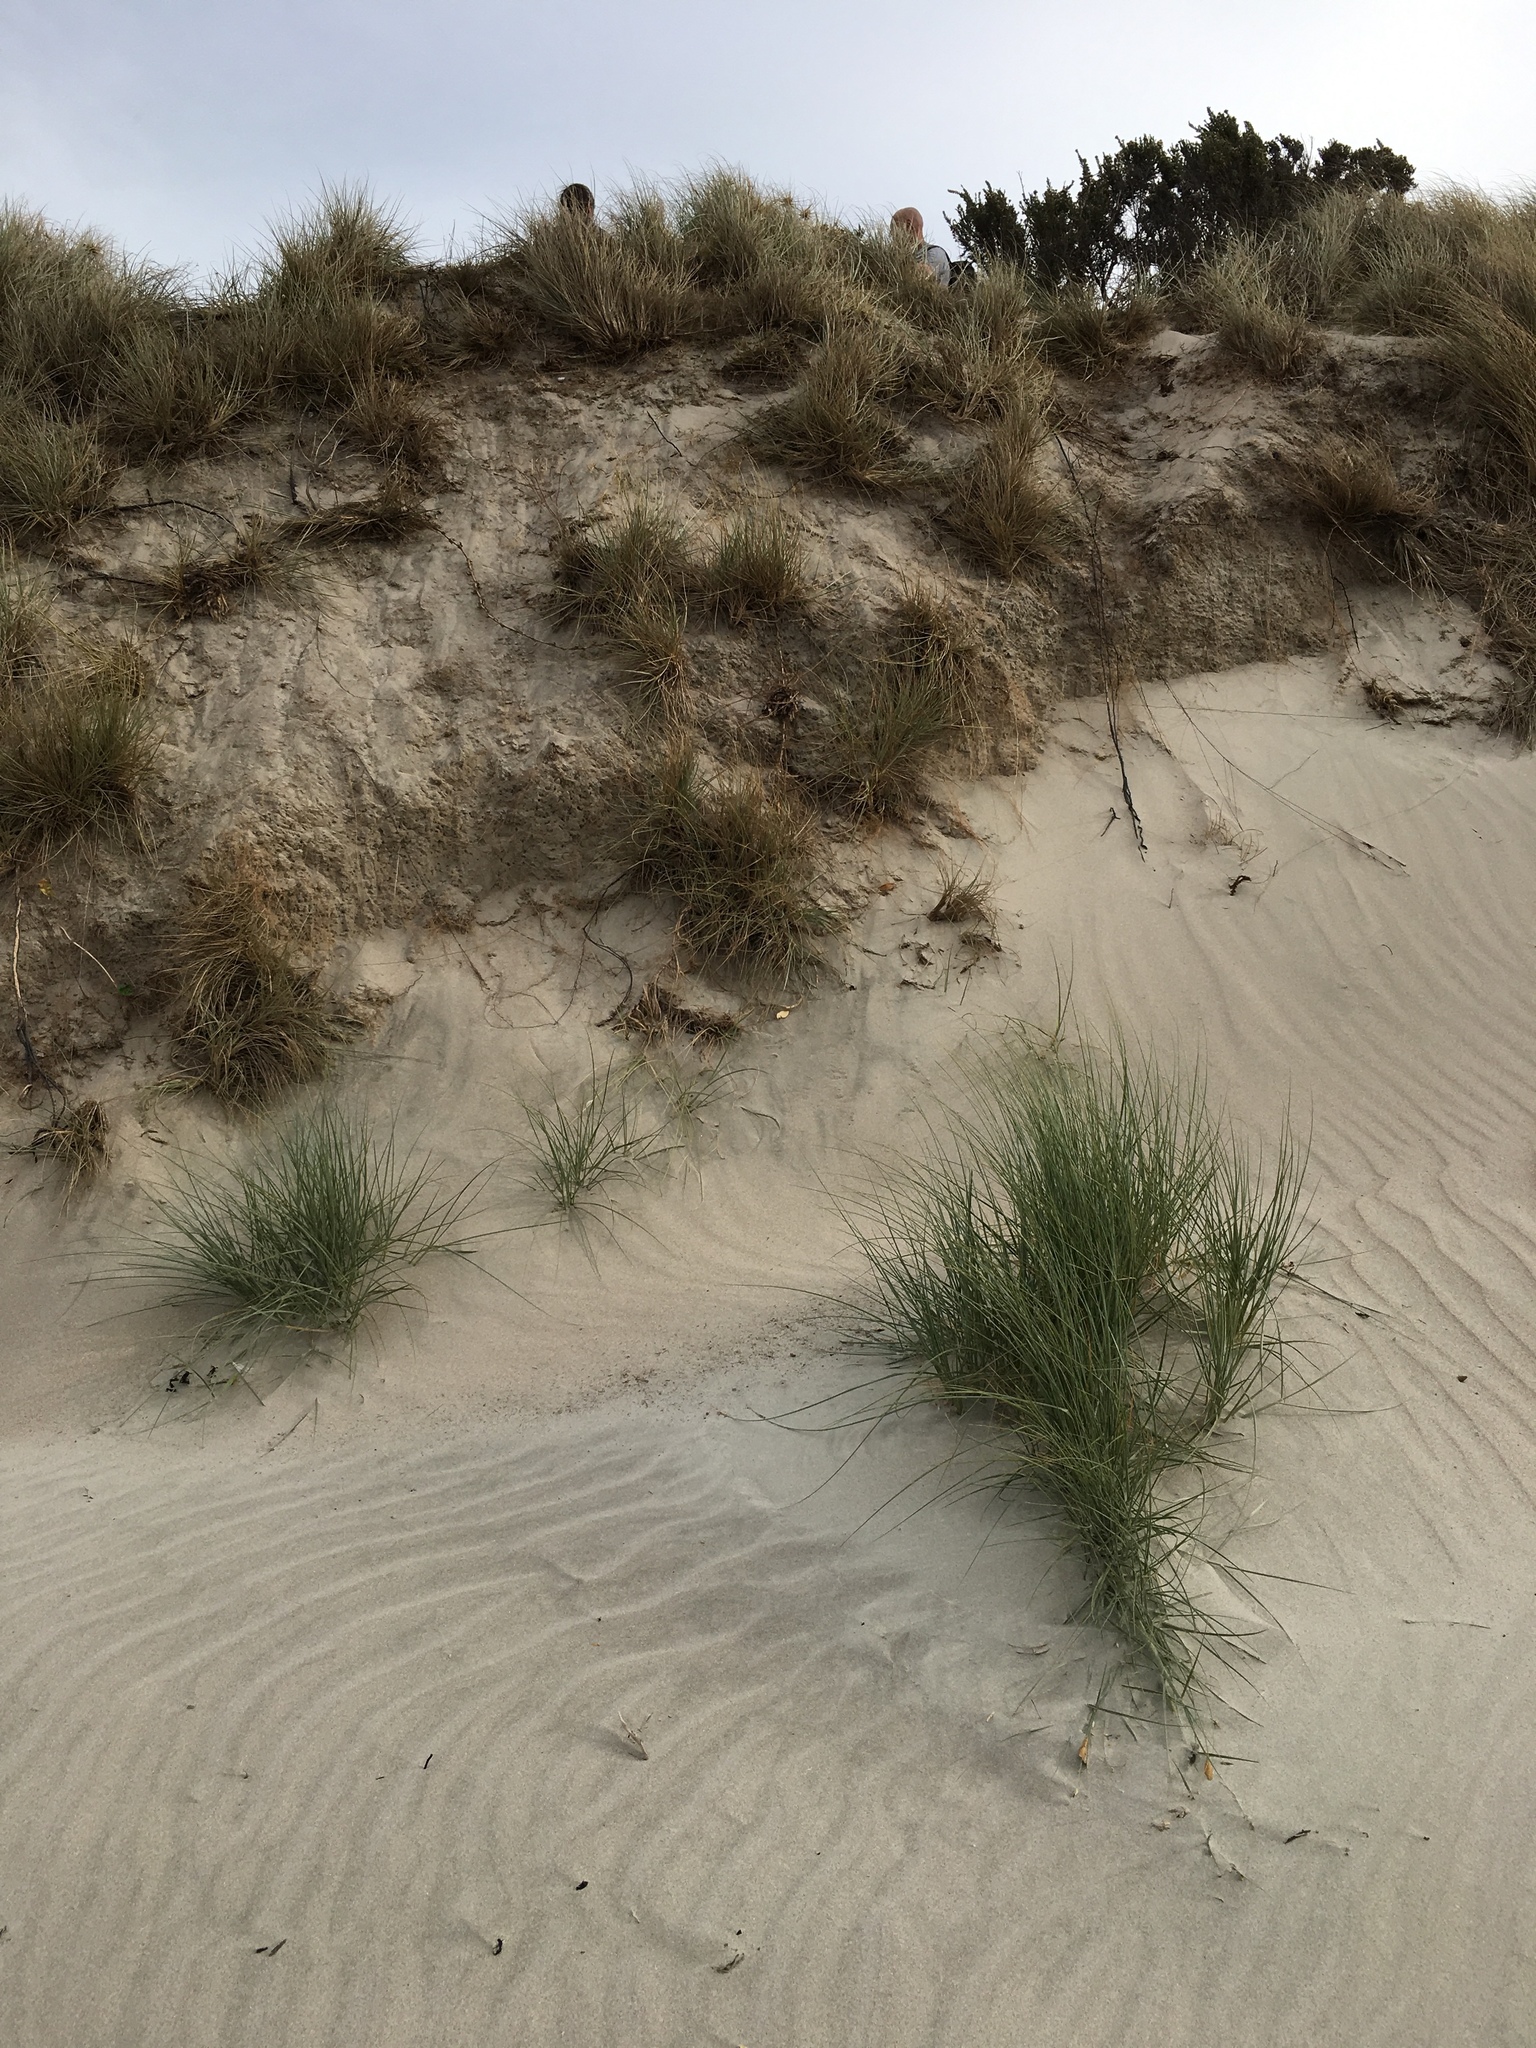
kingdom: Plantae
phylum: Tracheophyta
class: Liliopsida
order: Poales
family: Poaceae
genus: Spinifex
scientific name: Spinifex sericeus
